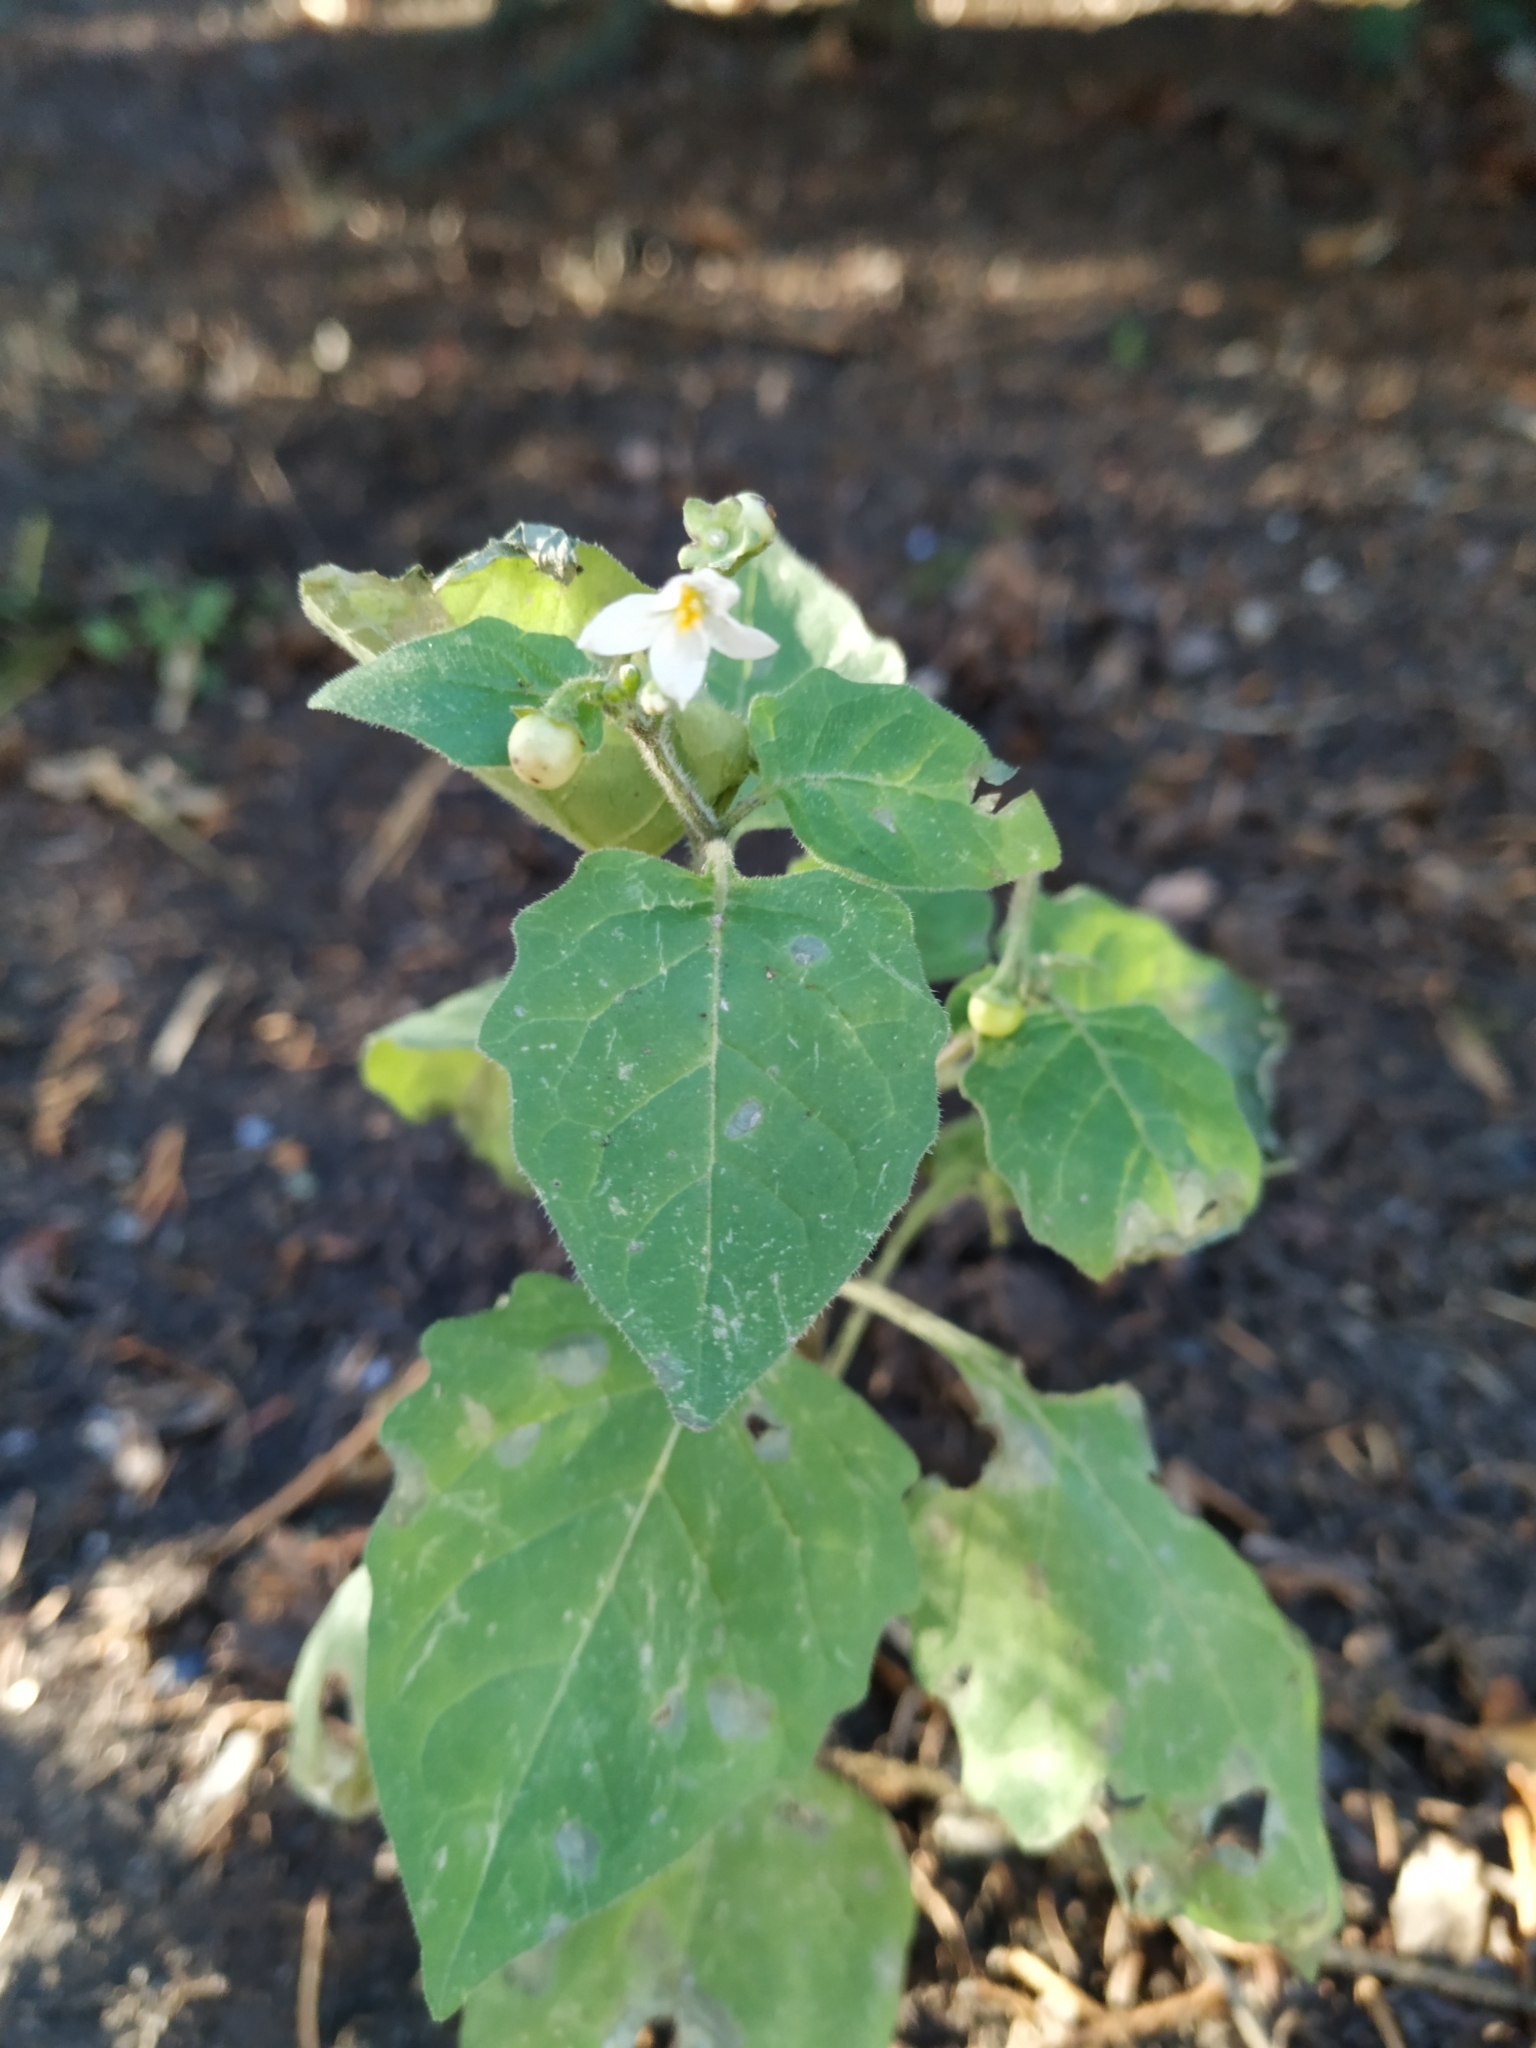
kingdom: Plantae
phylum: Tracheophyta
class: Magnoliopsida
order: Solanales
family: Solanaceae
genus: Solanum
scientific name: Solanum nigrum
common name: Black nightshade
